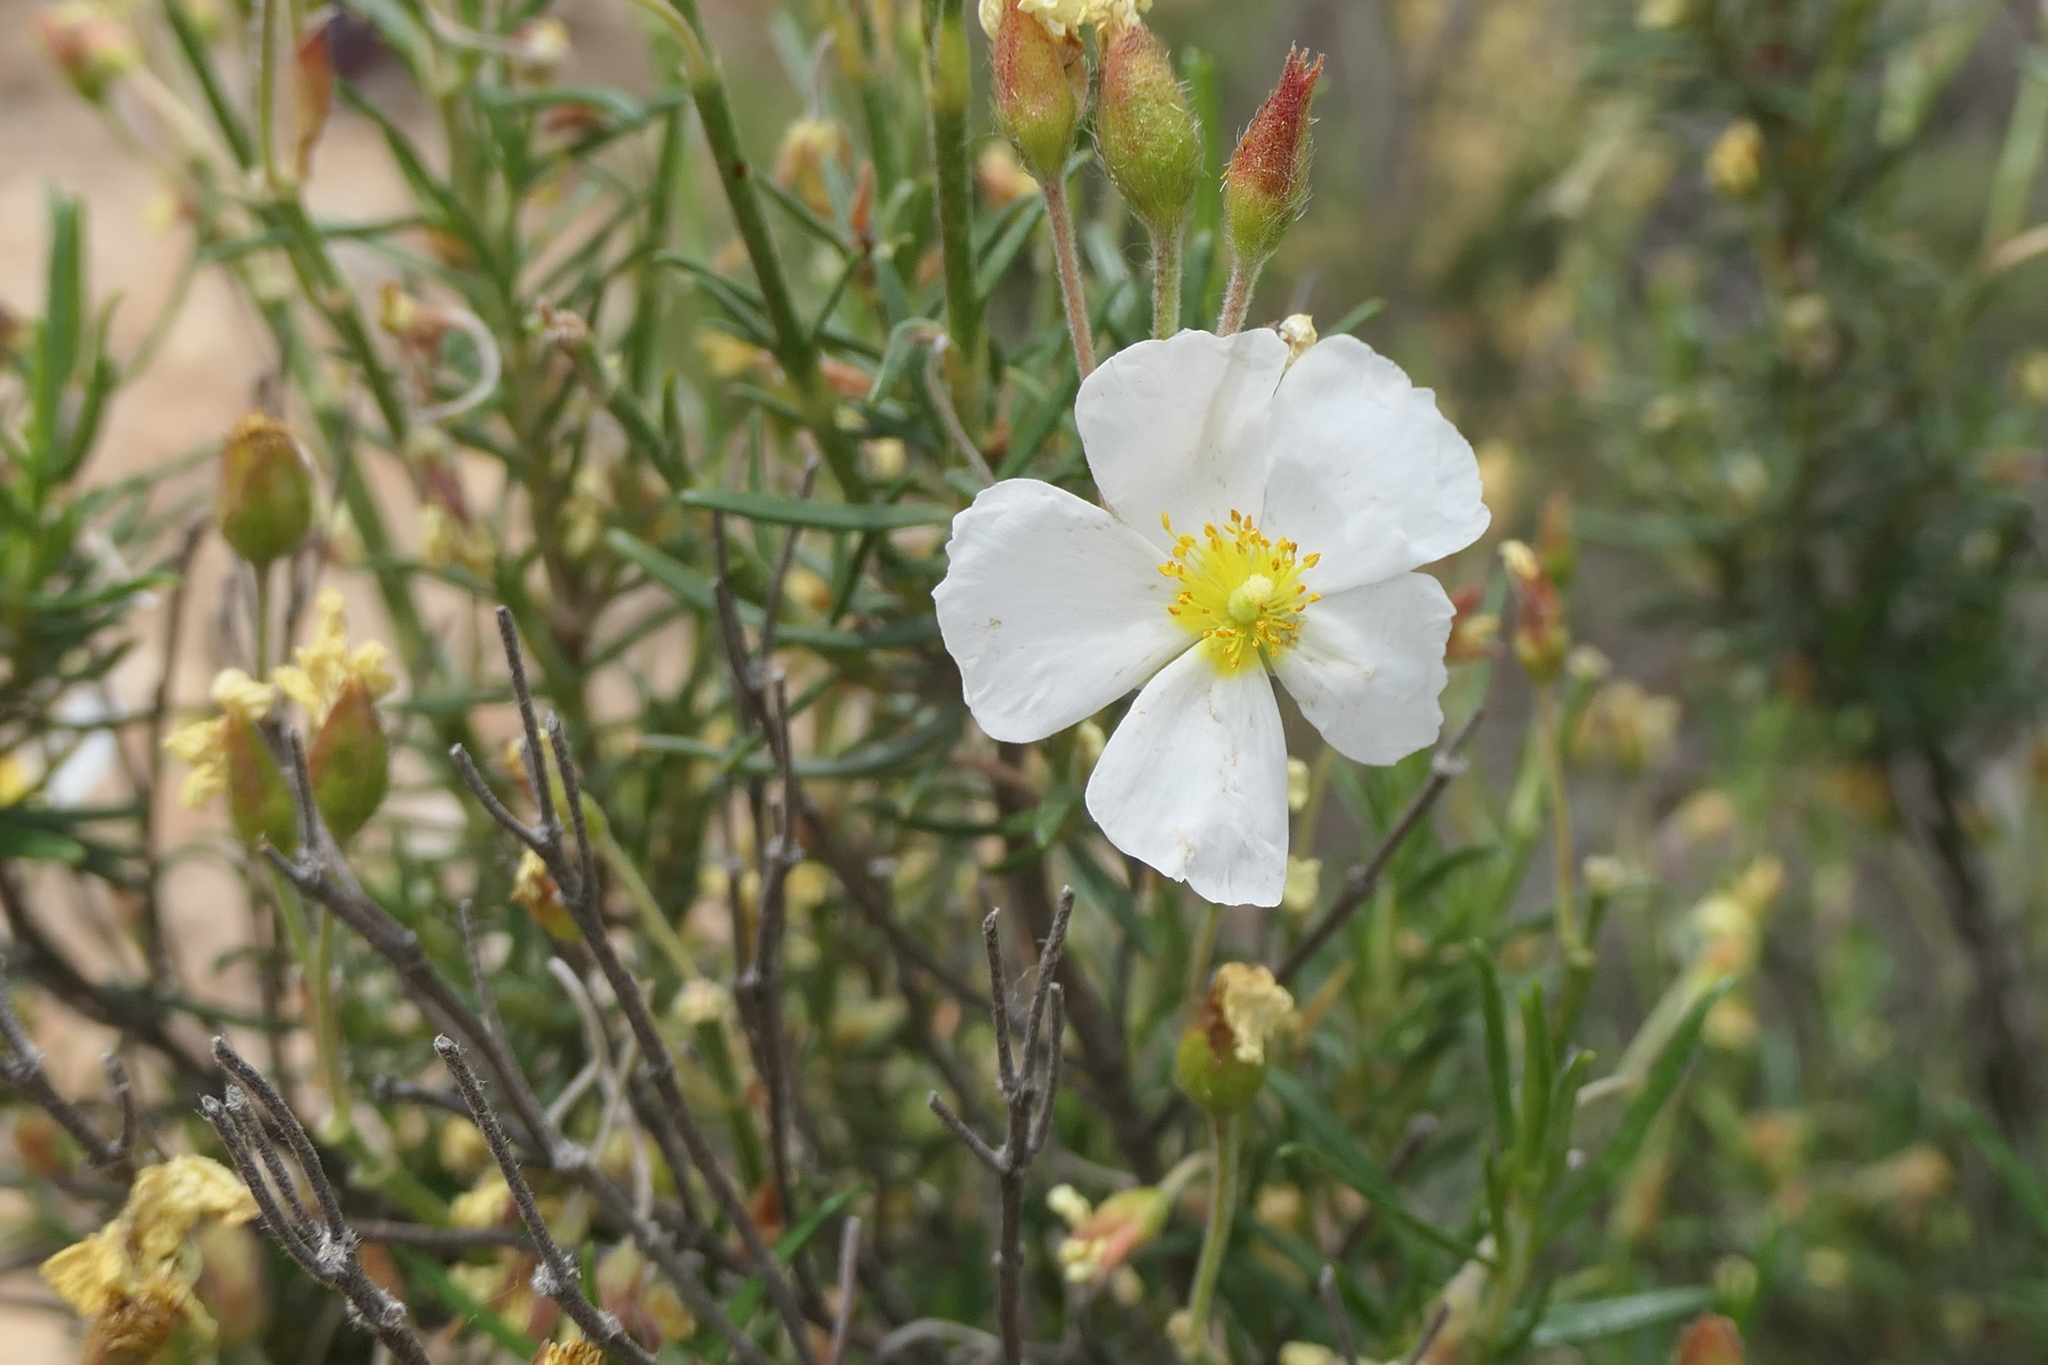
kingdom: Plantae
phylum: Tracheophyta
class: Magnoliopsida
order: Malvales
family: Cistaceae
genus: Cistus
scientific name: Cistus clusii
